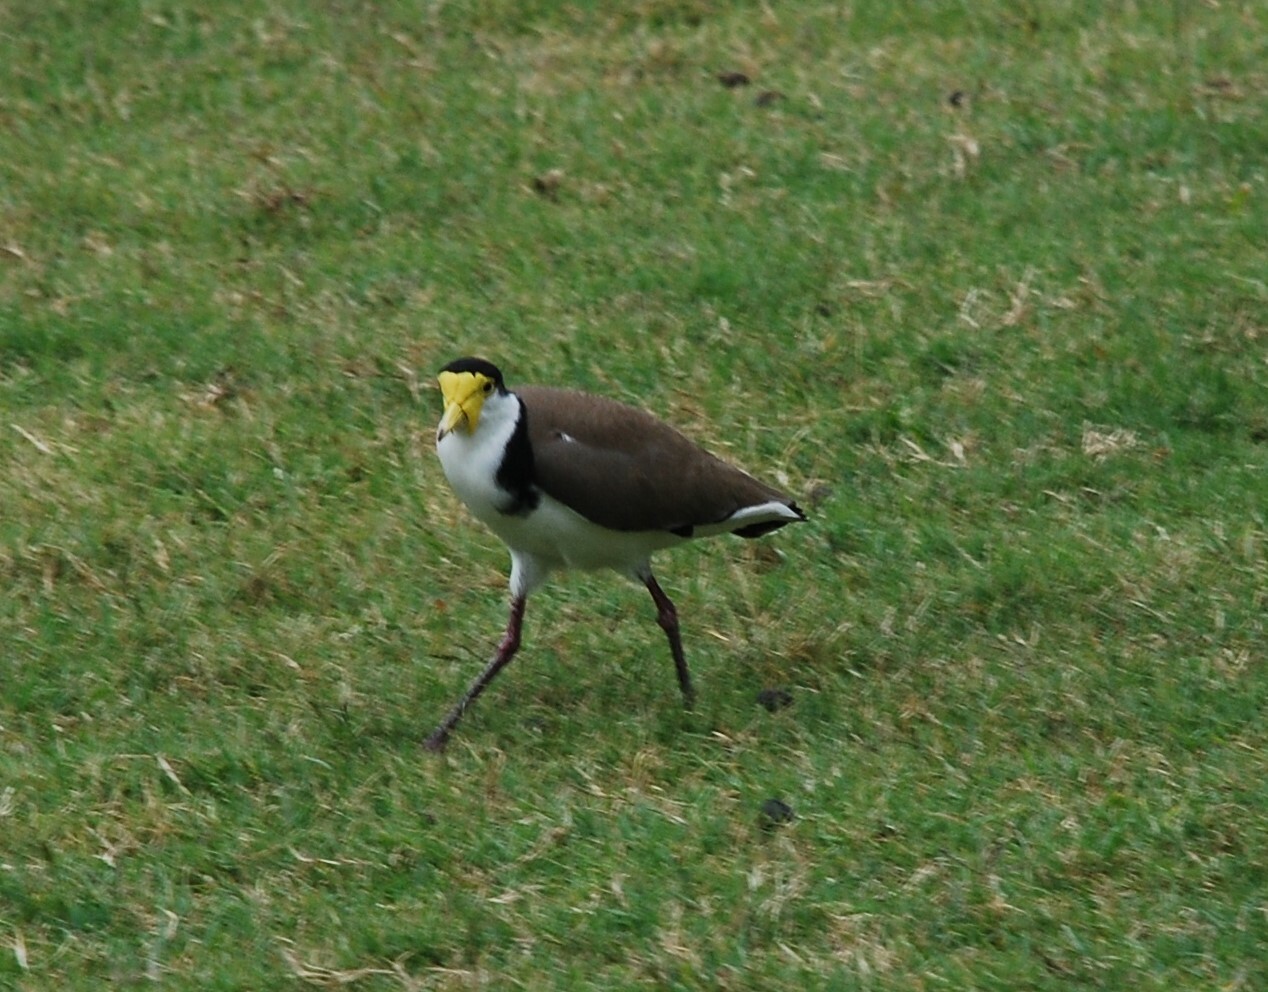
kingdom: Animalia
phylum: Chordata
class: Aves
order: Charadriiformes
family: Charadriidae
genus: Vanellus
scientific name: Vanellus miles
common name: Masked lapwing
